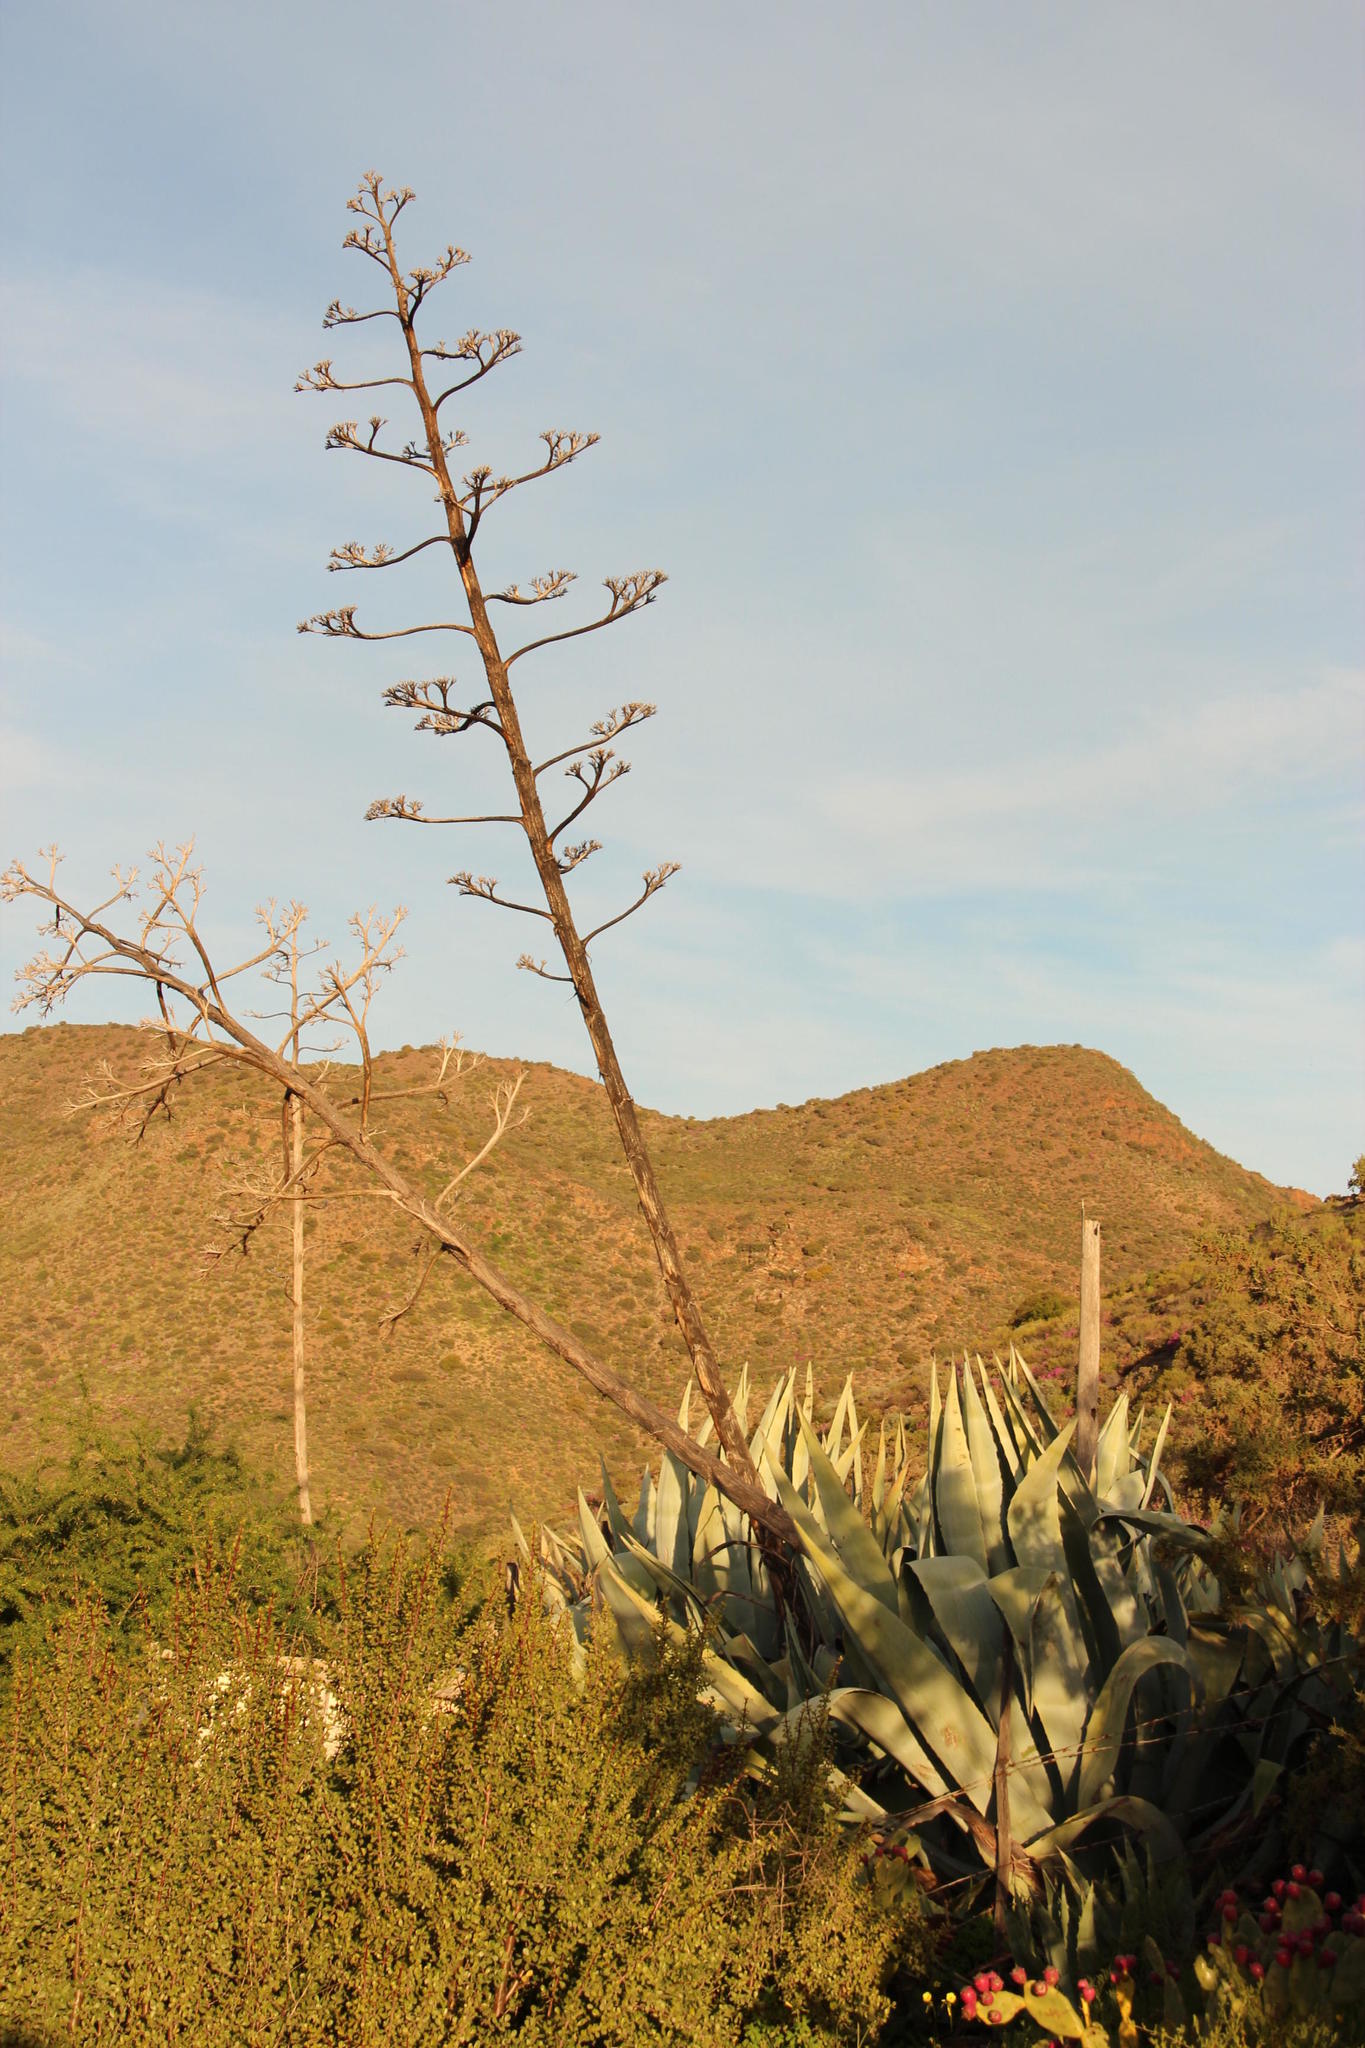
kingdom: Plantae
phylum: Tracheophyta
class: Liliopsida
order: Asparagales
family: Asparagaceae
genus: Agave
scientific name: Agave americana
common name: Centuryplant
